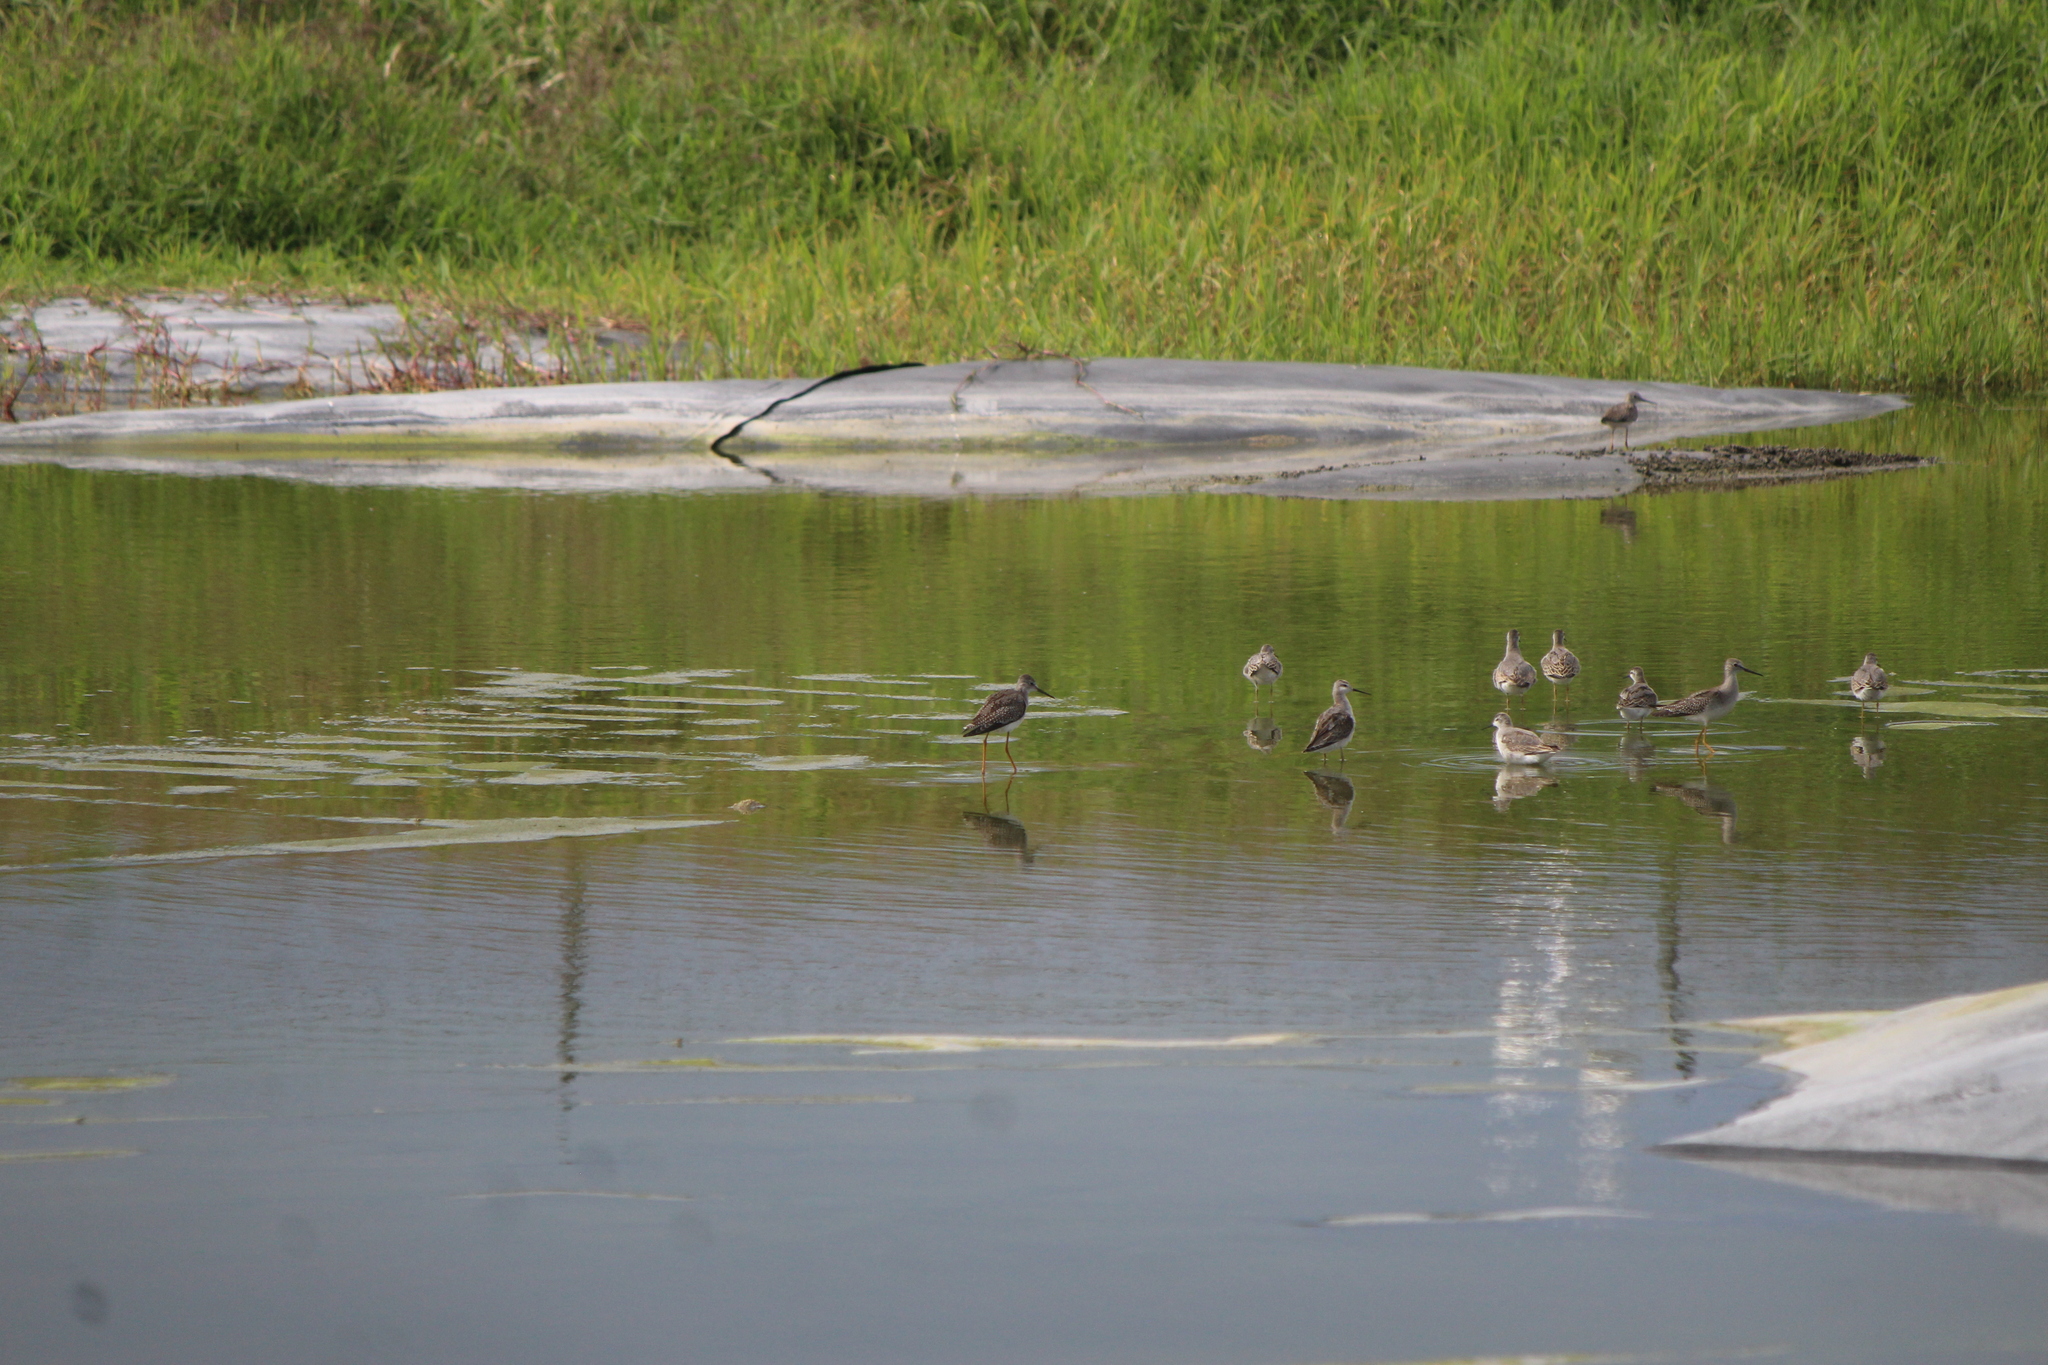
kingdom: Animalia
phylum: Chordata
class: Aves
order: Charadriiformes
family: Scolopacidae
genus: Tringa
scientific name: Tringa flavipes
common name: Lesser yellowlegs
